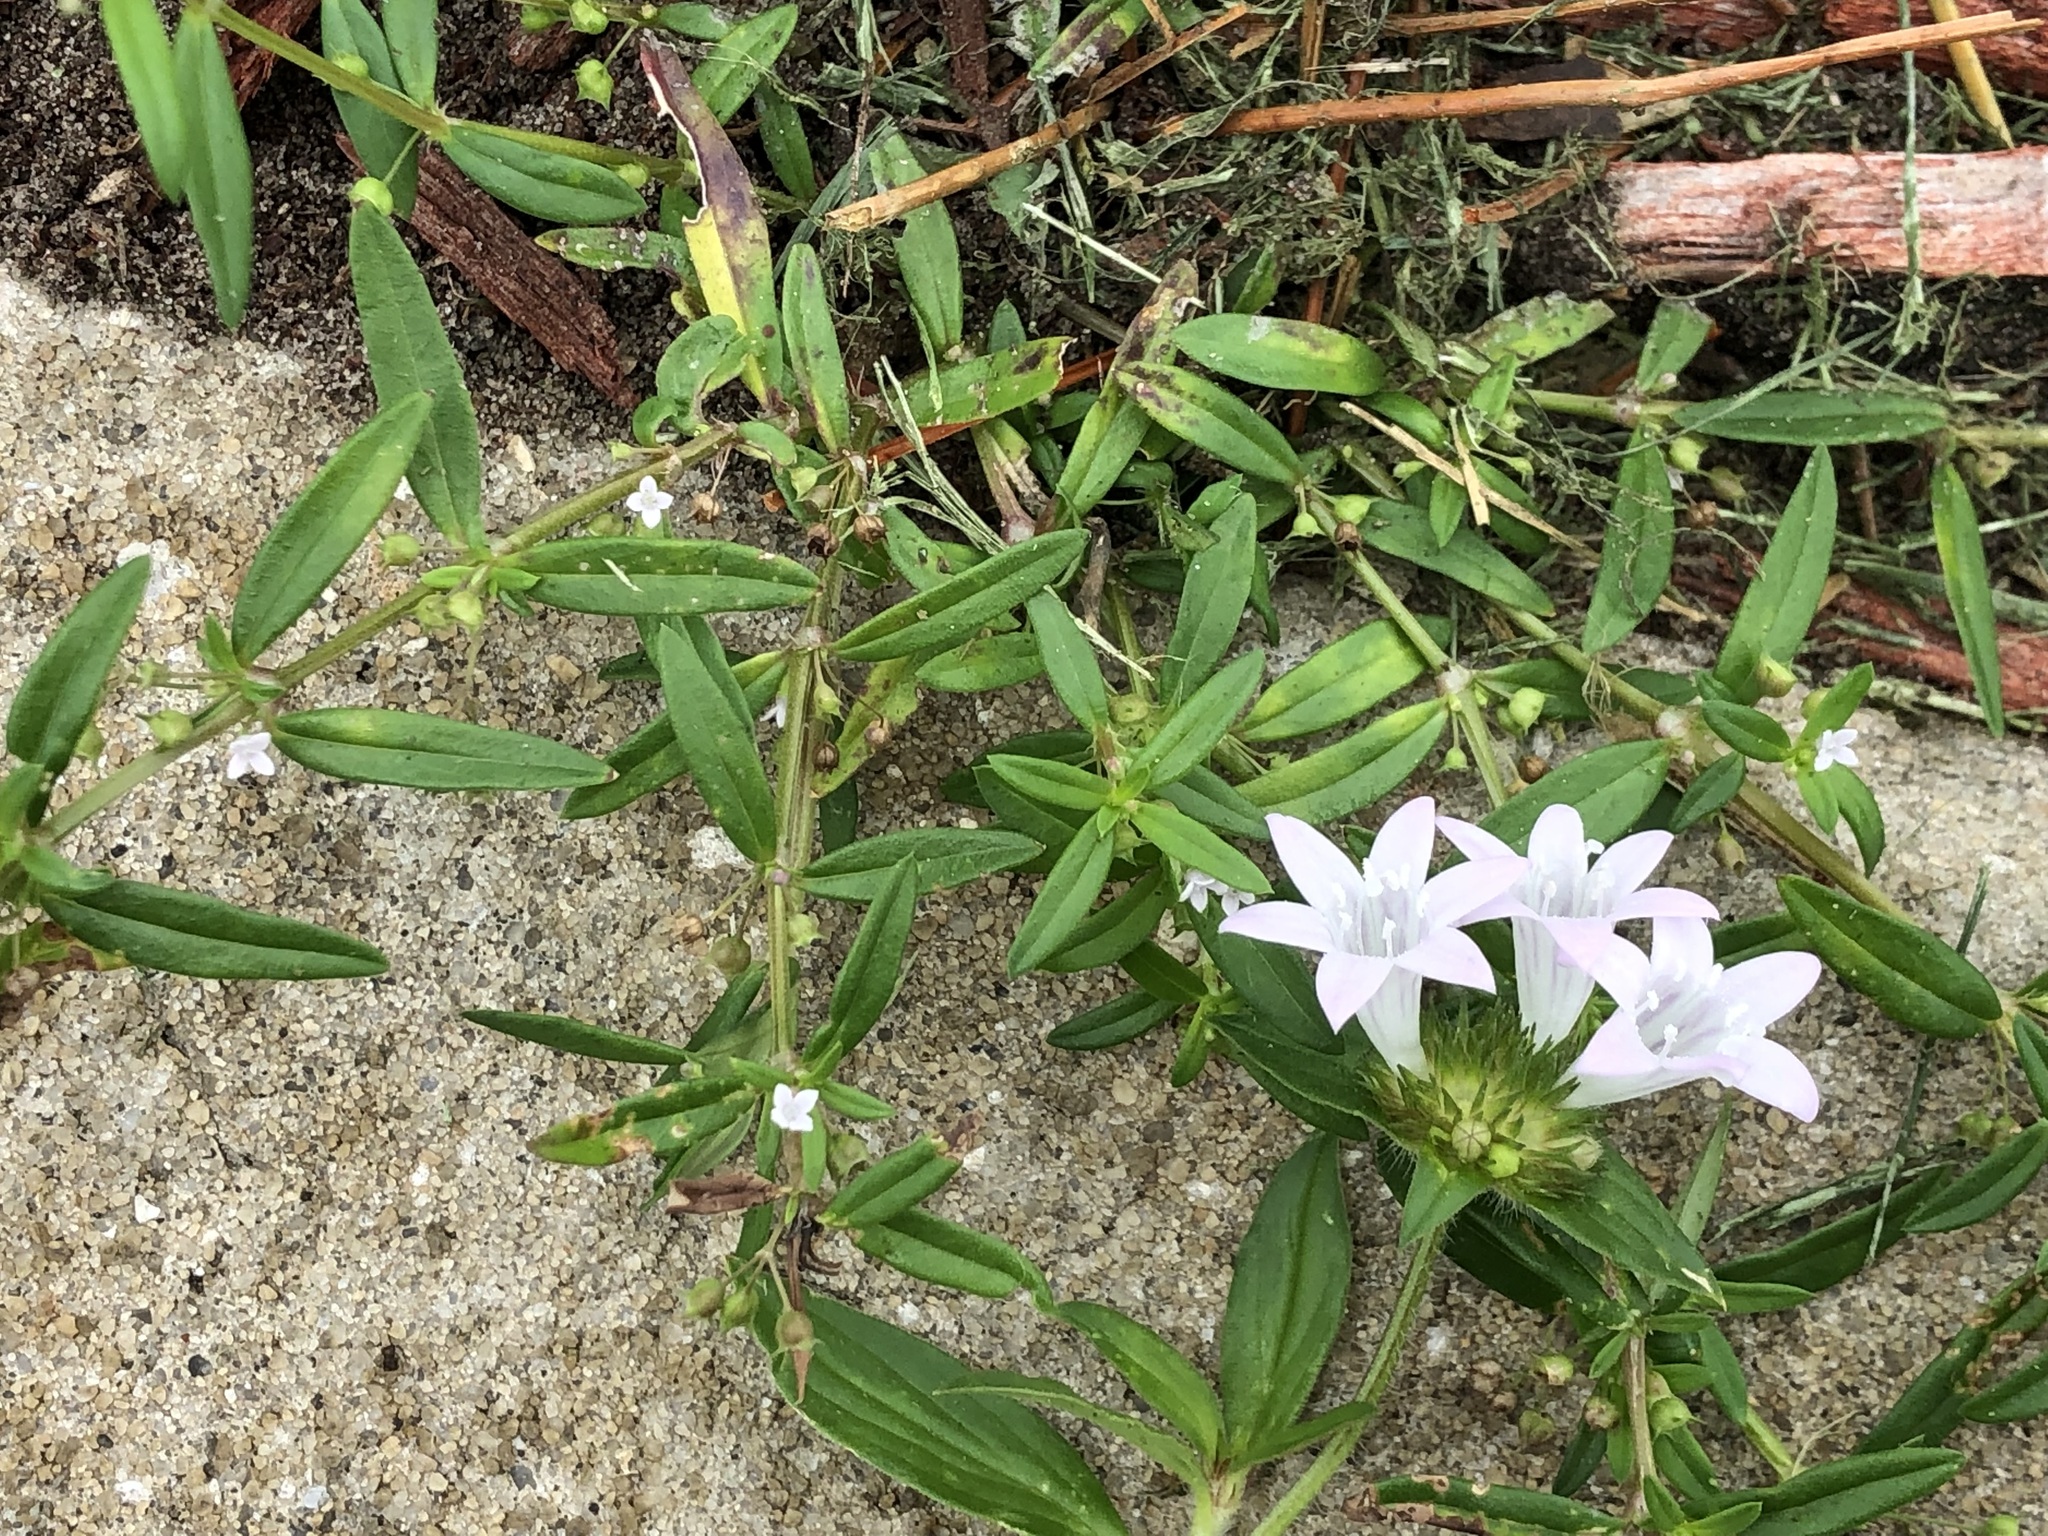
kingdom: Plantae
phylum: Tracheophyta
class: Magnoliopsida
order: Gentianales
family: Rubiaceae
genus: Oldenlandia
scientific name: Oldenlandia corymbosa
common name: Flat-top mille graines
